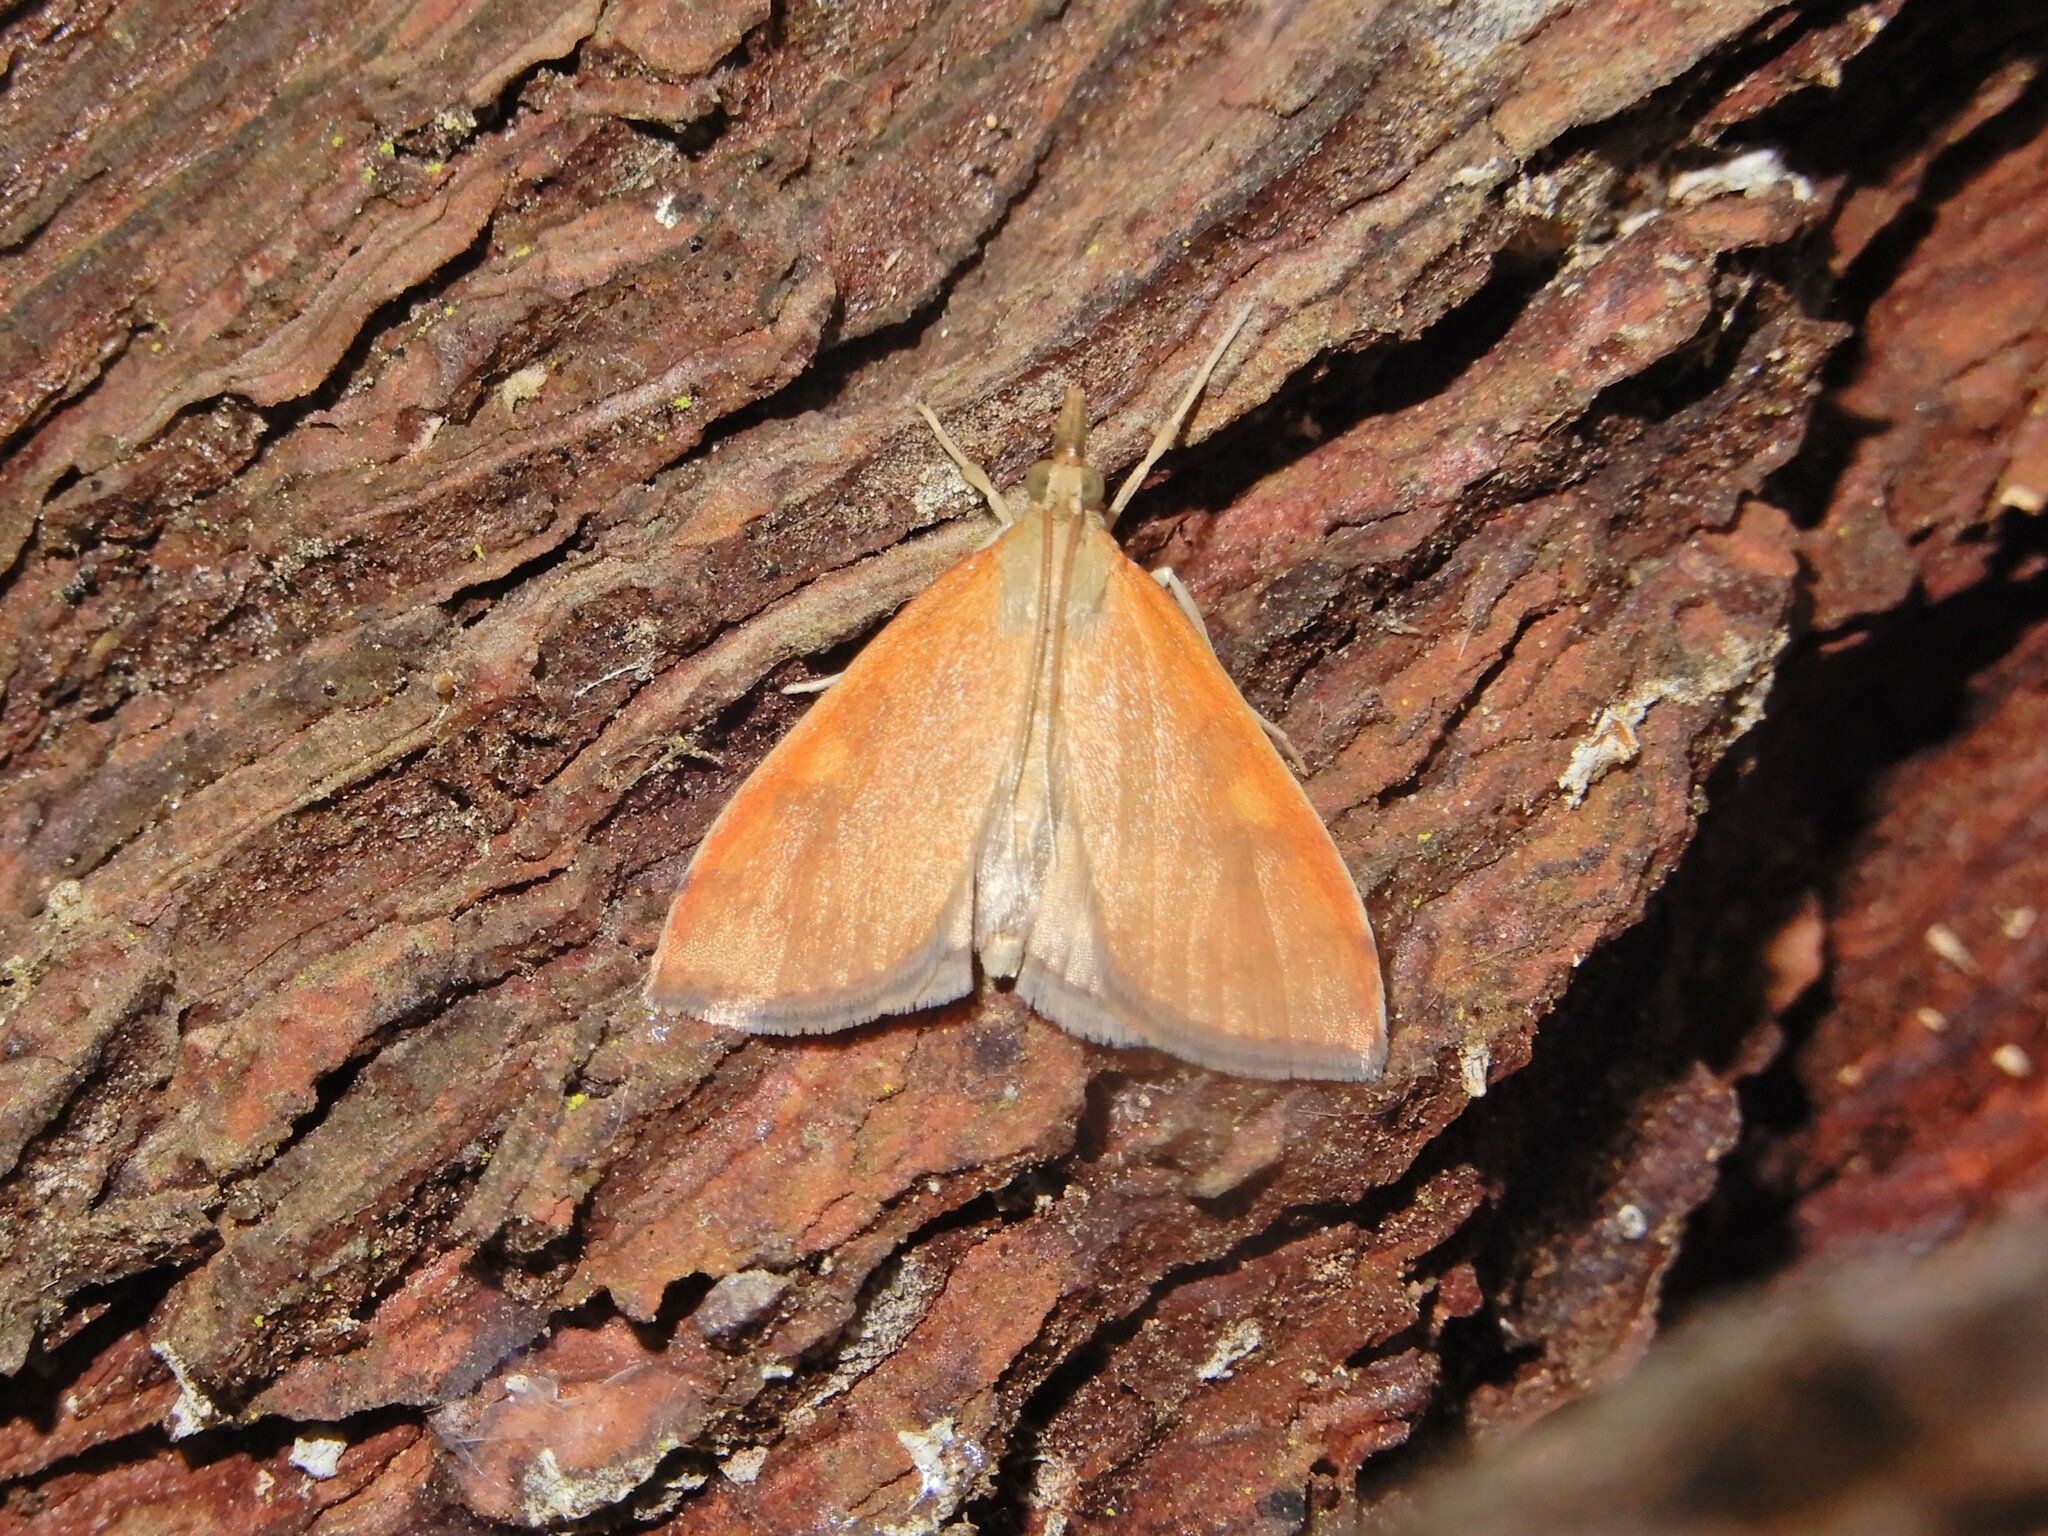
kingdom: Animalia
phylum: Arthropoda
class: Insecta
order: Lepidoptera
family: Crambidae
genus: Udea
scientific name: Udea Mnesictena flavidalis
